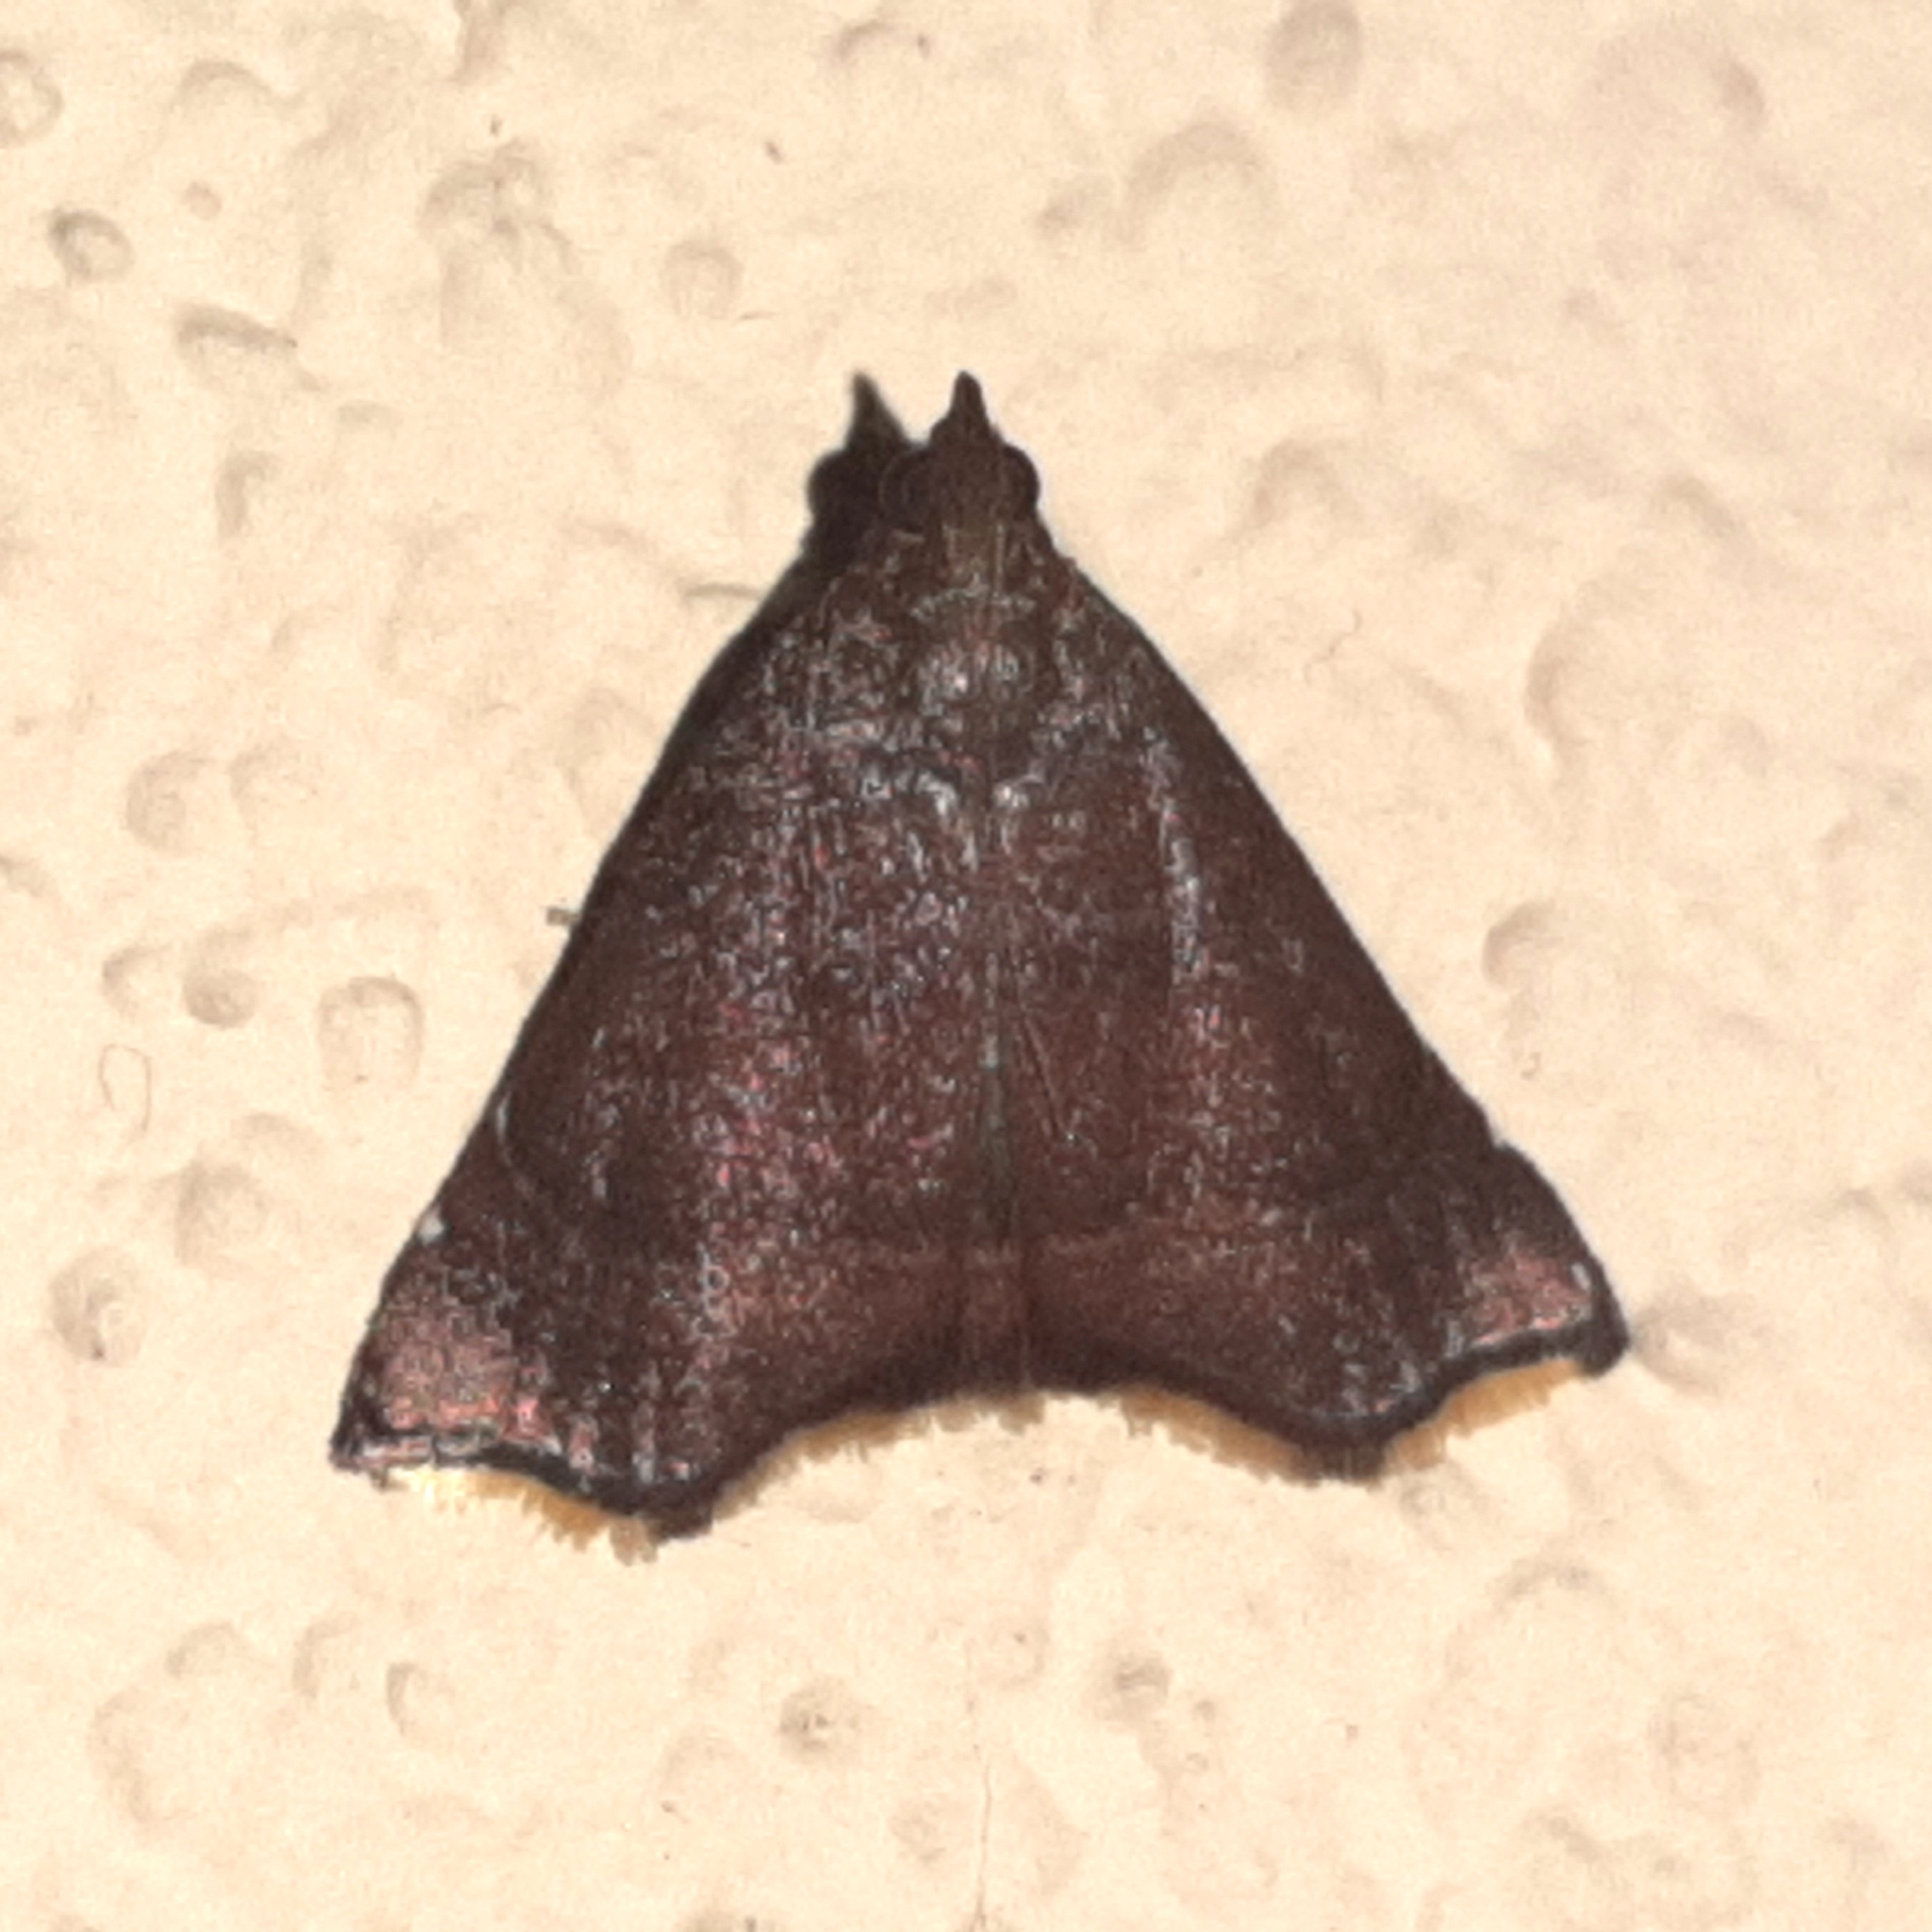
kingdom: Animalia
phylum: Arthropoda
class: Insecta
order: Lepidoptera
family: Pyralidae
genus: Salobrena
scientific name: Salobrena vacuana
